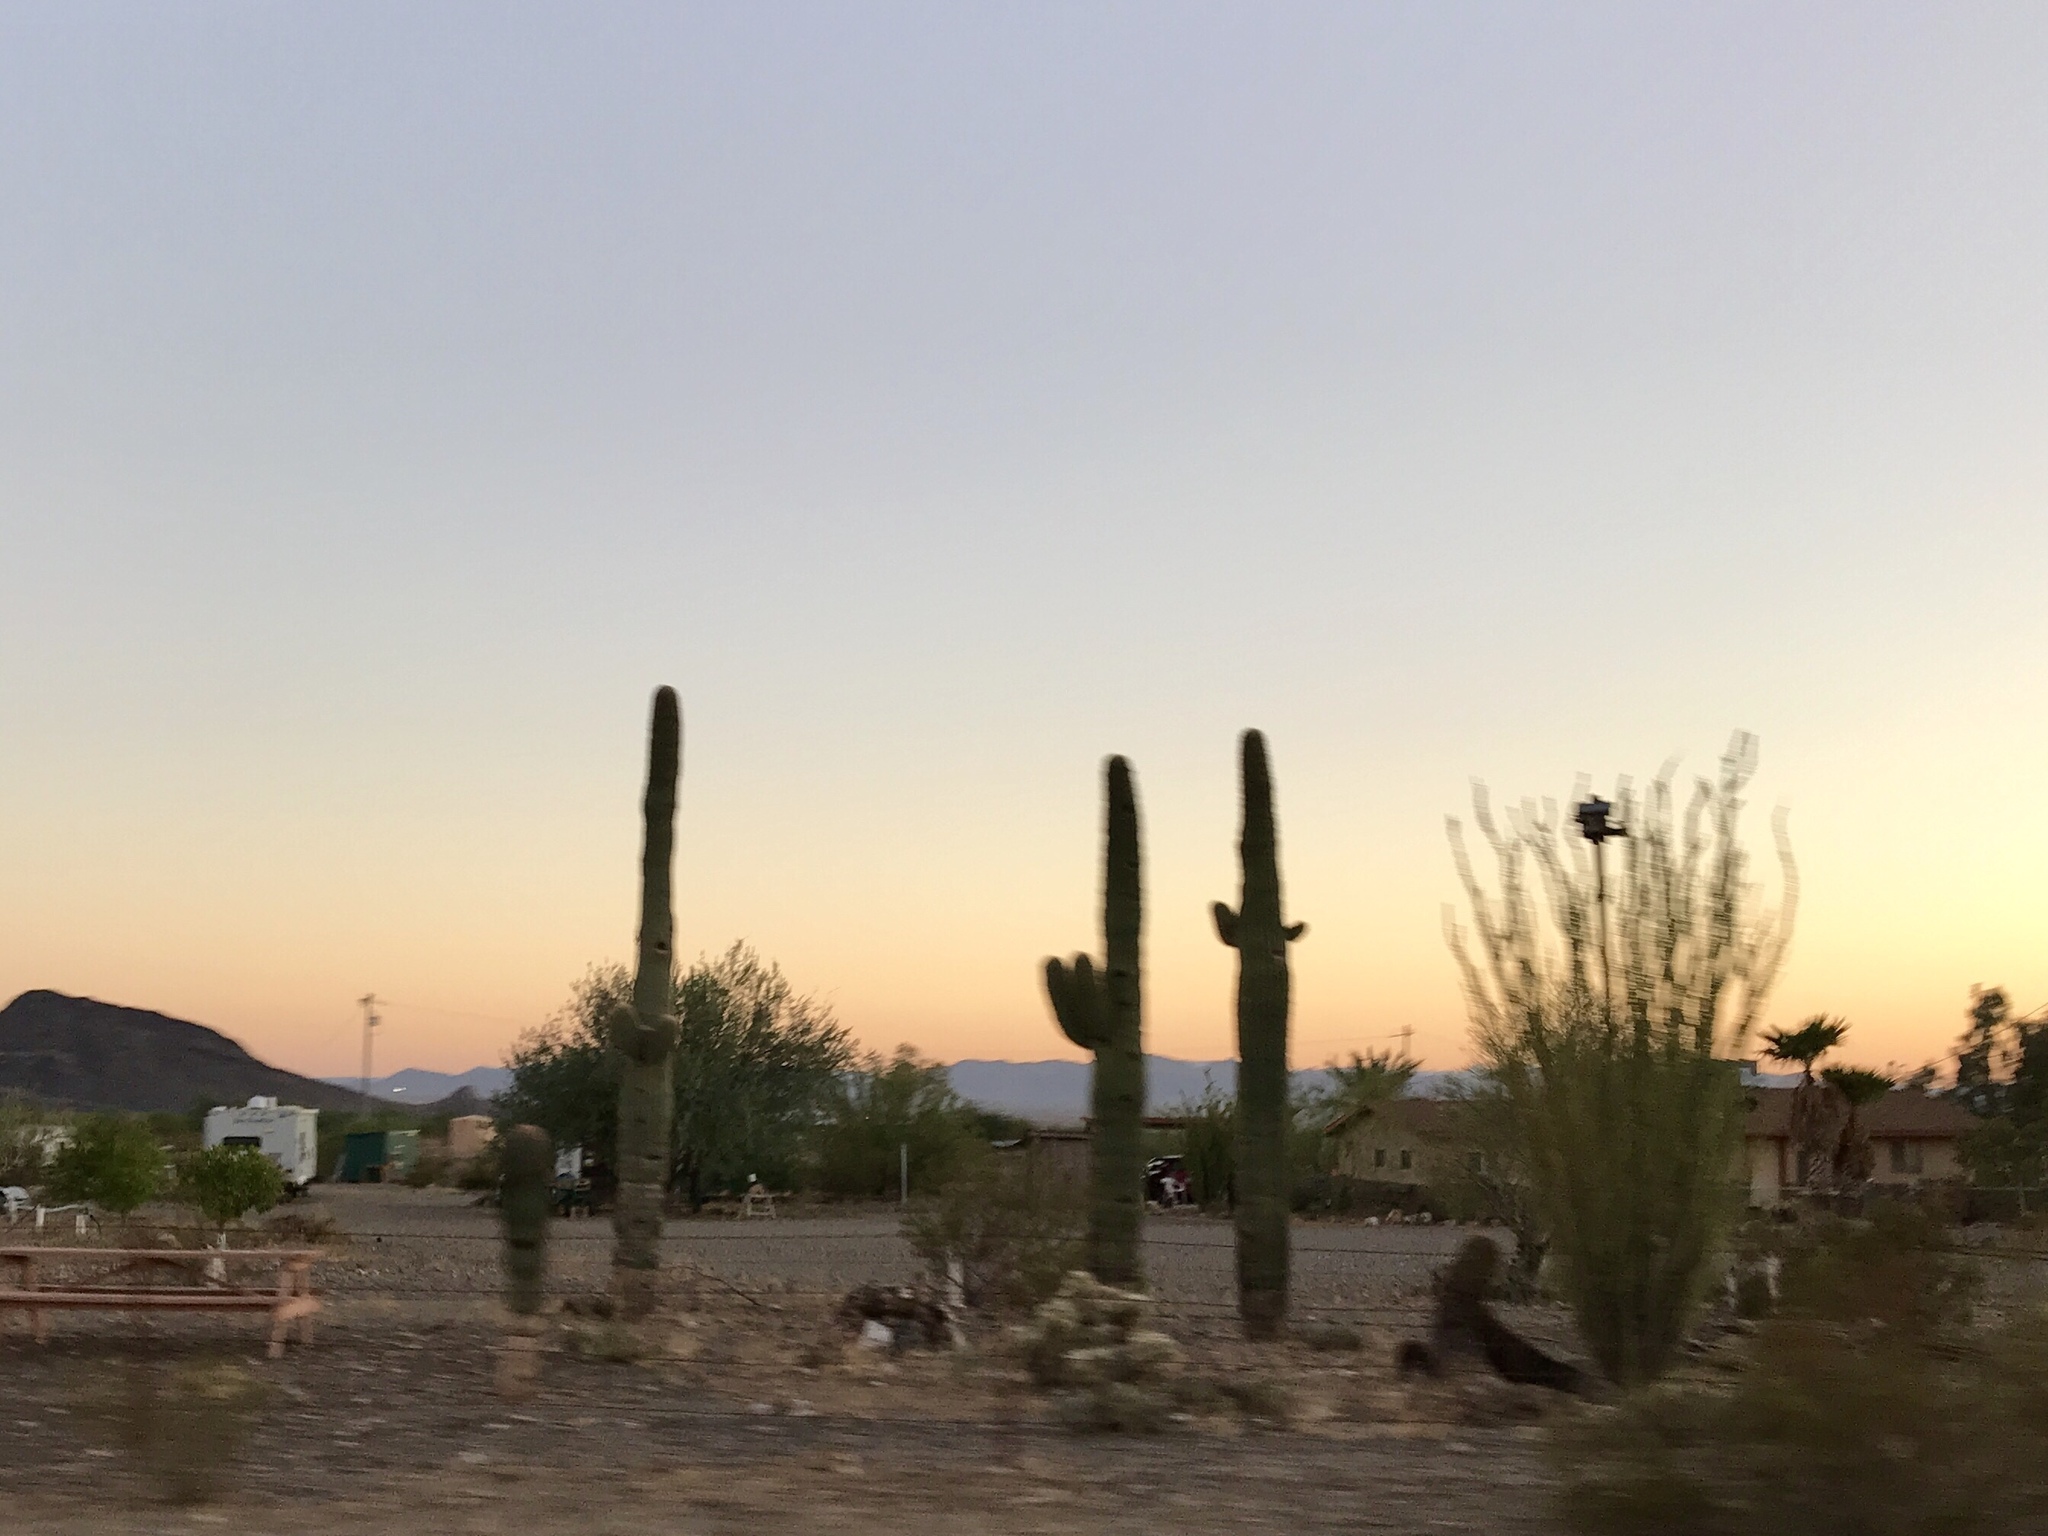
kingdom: Plantae
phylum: Tracheophyta
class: Magnoliopsida
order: Caryophyllales
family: Cactaceae
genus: Carnegiea
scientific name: Carnegiea gigantea
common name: Saguaro
